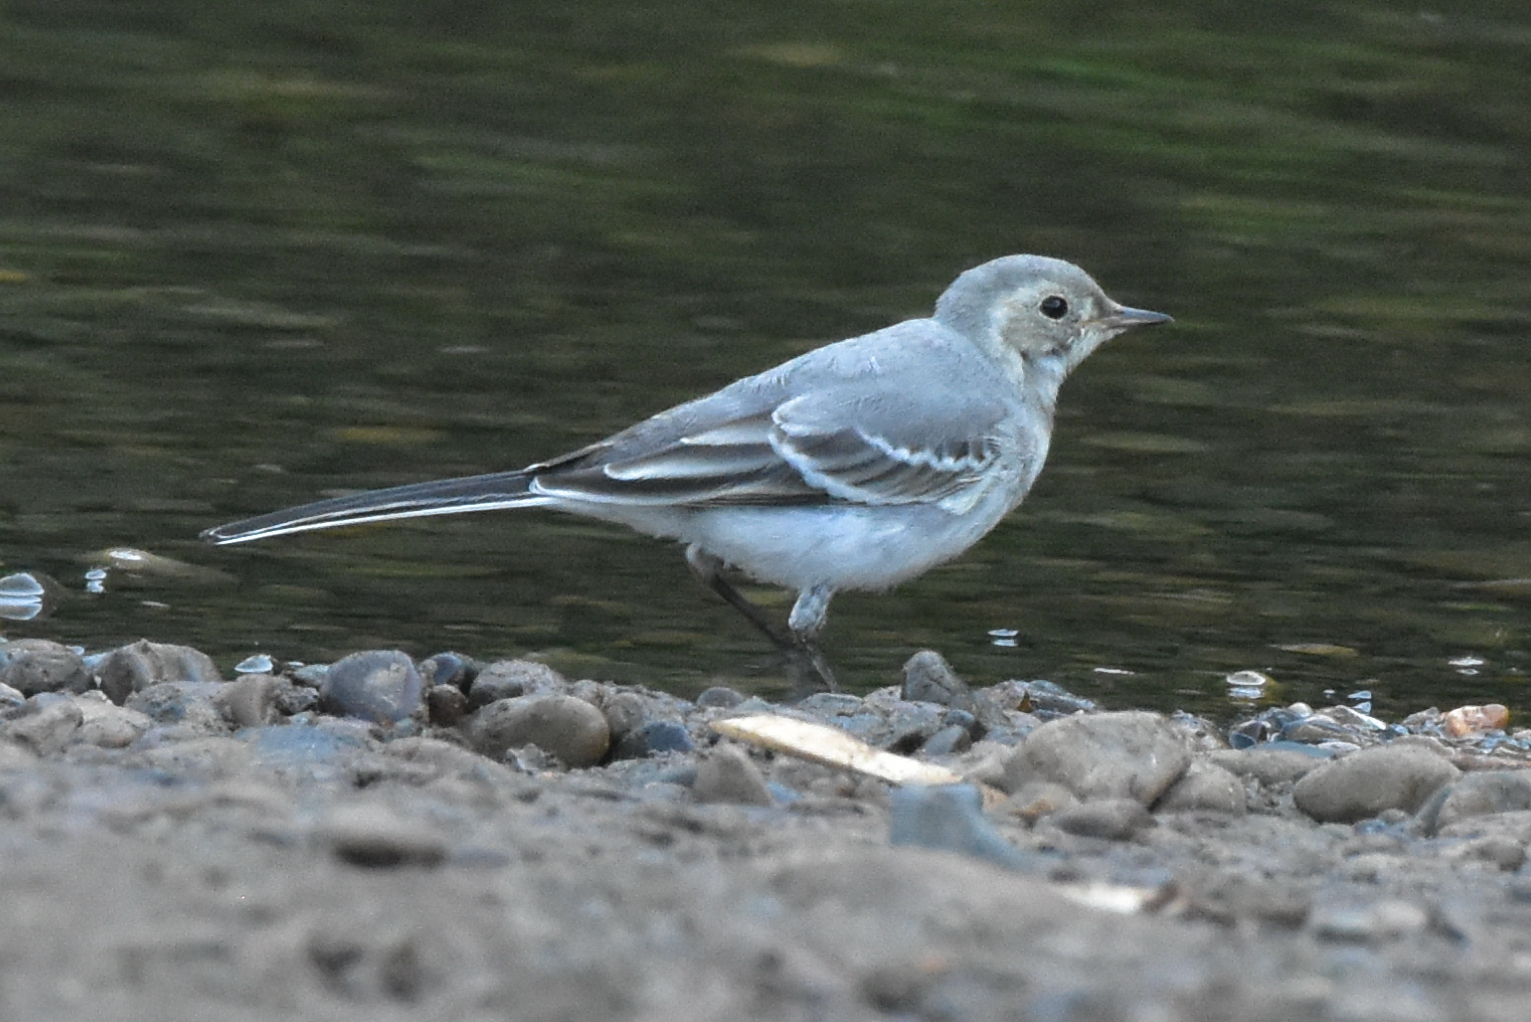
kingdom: Animalia
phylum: Chordata
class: Aves
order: Passeriformes
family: Motacillidae
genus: Motacilla
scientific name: Motacilla alba
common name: White wagtail
